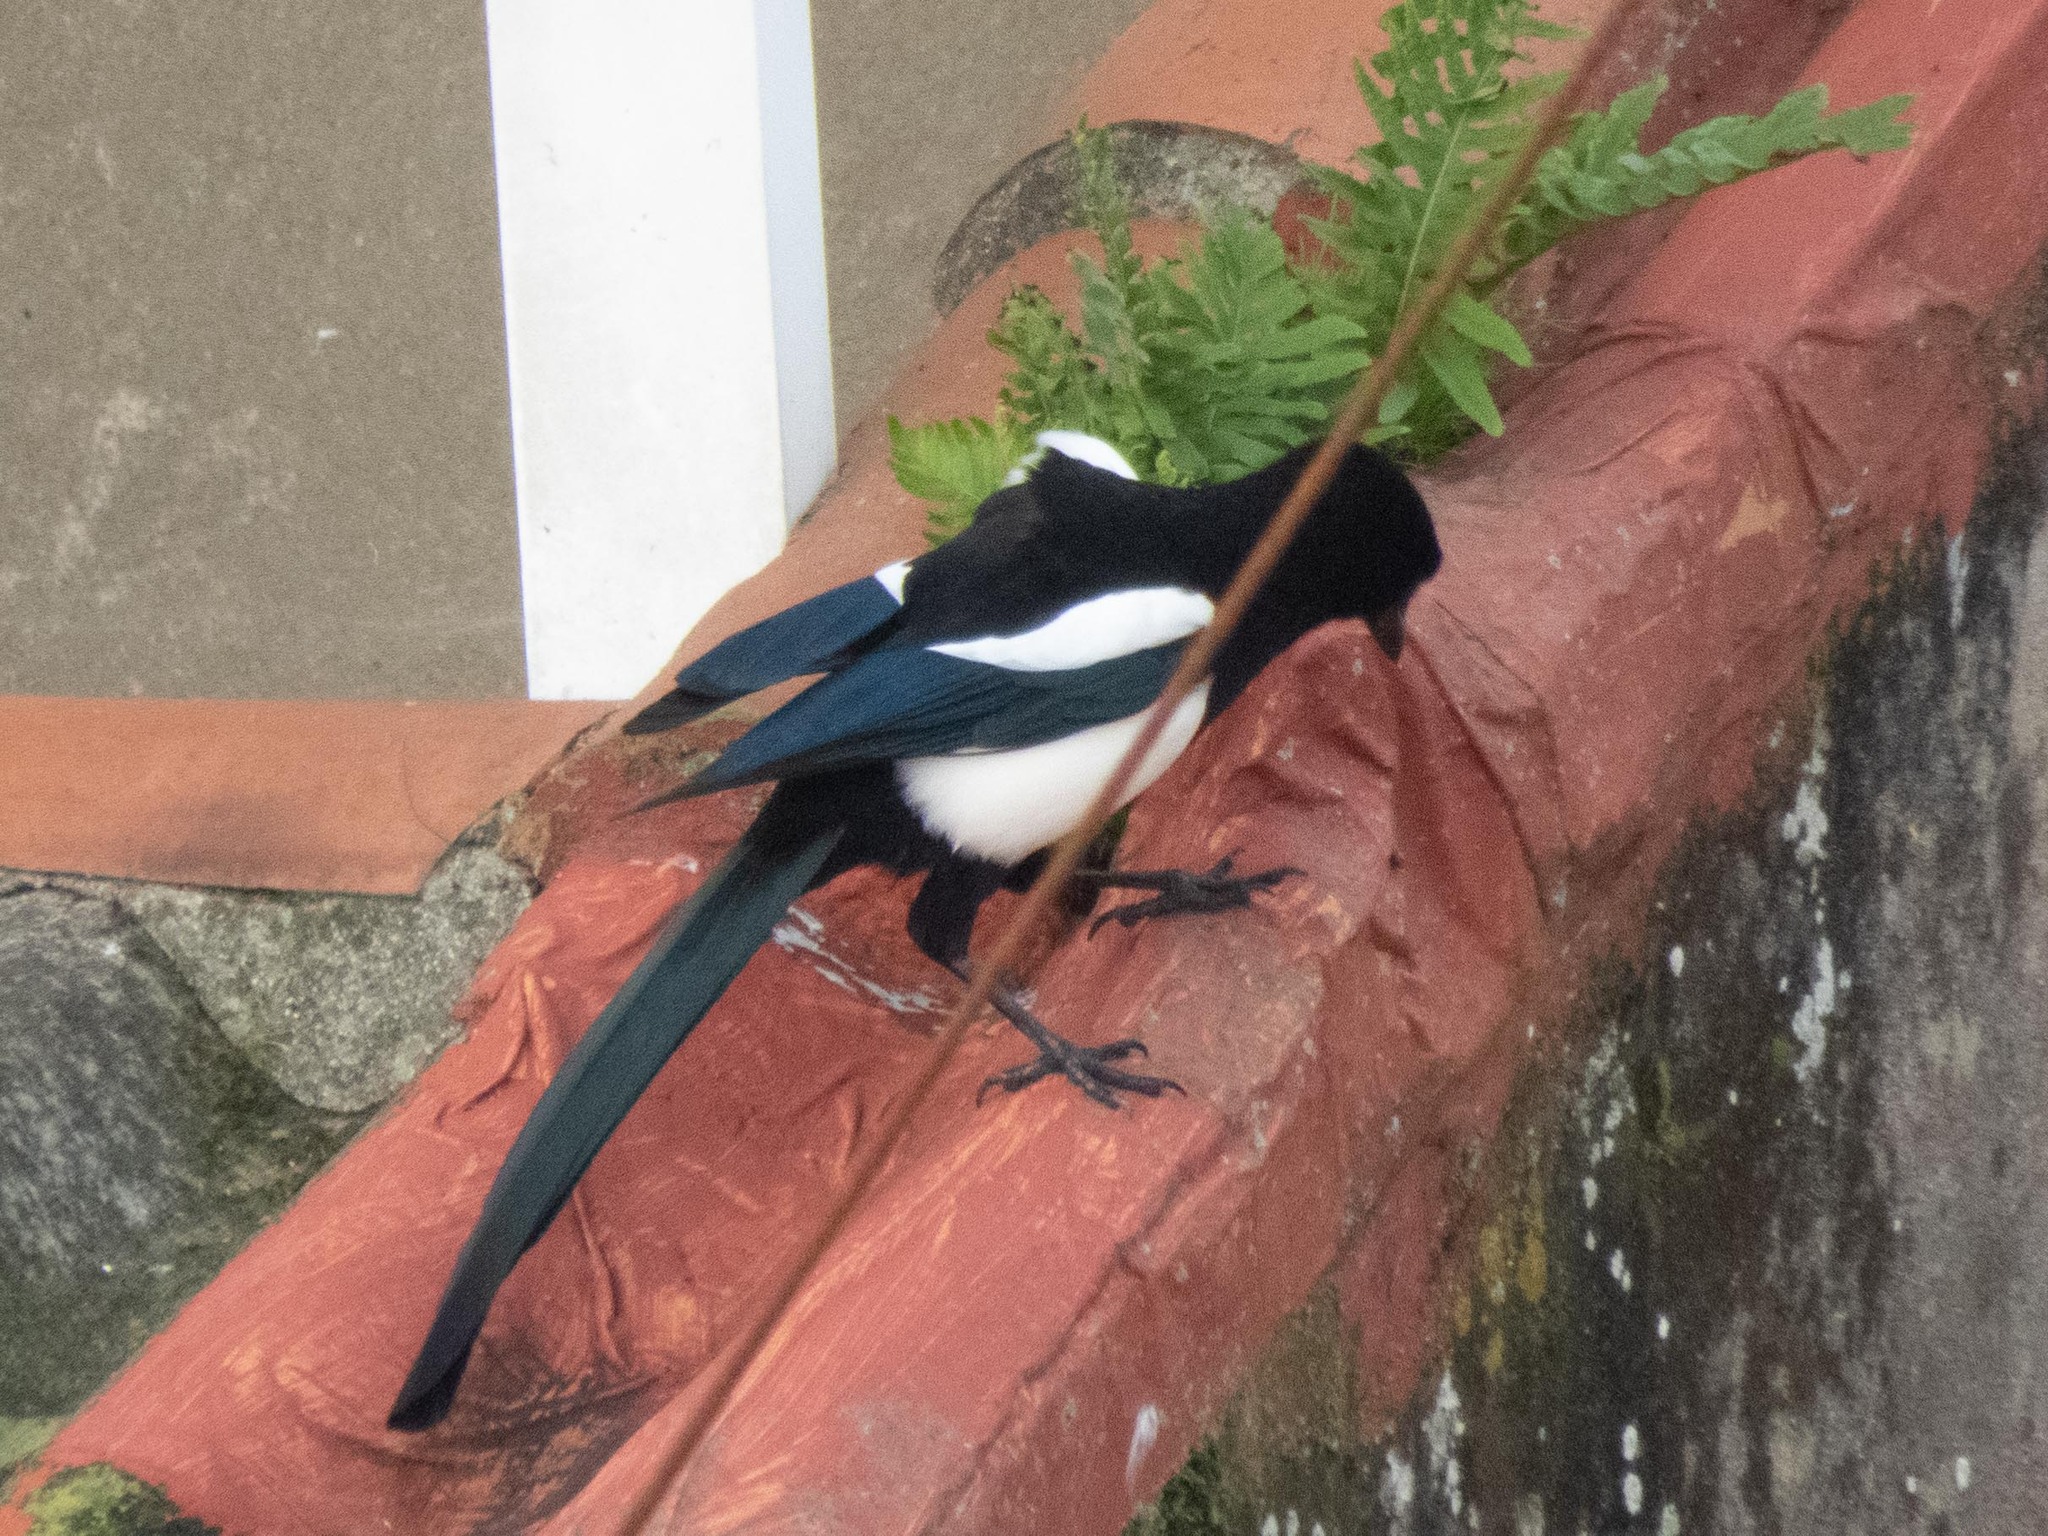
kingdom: Animalia
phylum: Chordata
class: Aves
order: Passeriformes
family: Corvidae
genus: Pica
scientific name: Pica pica
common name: Eurasian magpie
